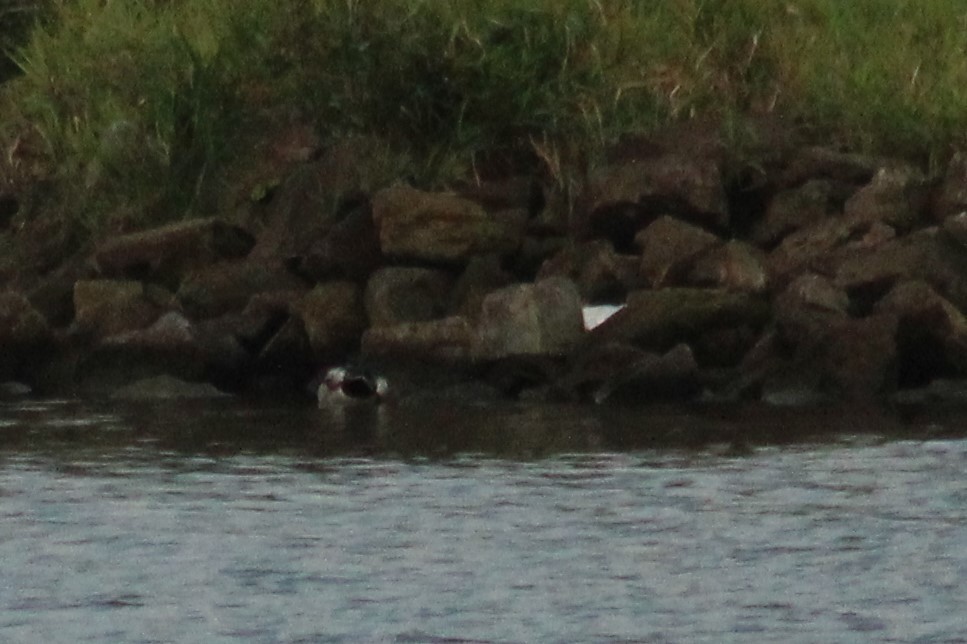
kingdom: Animalia
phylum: Chordata
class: Aves
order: Anseriformes
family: Anatidae
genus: Anas
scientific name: Anas platyrhynchos
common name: Mallard
